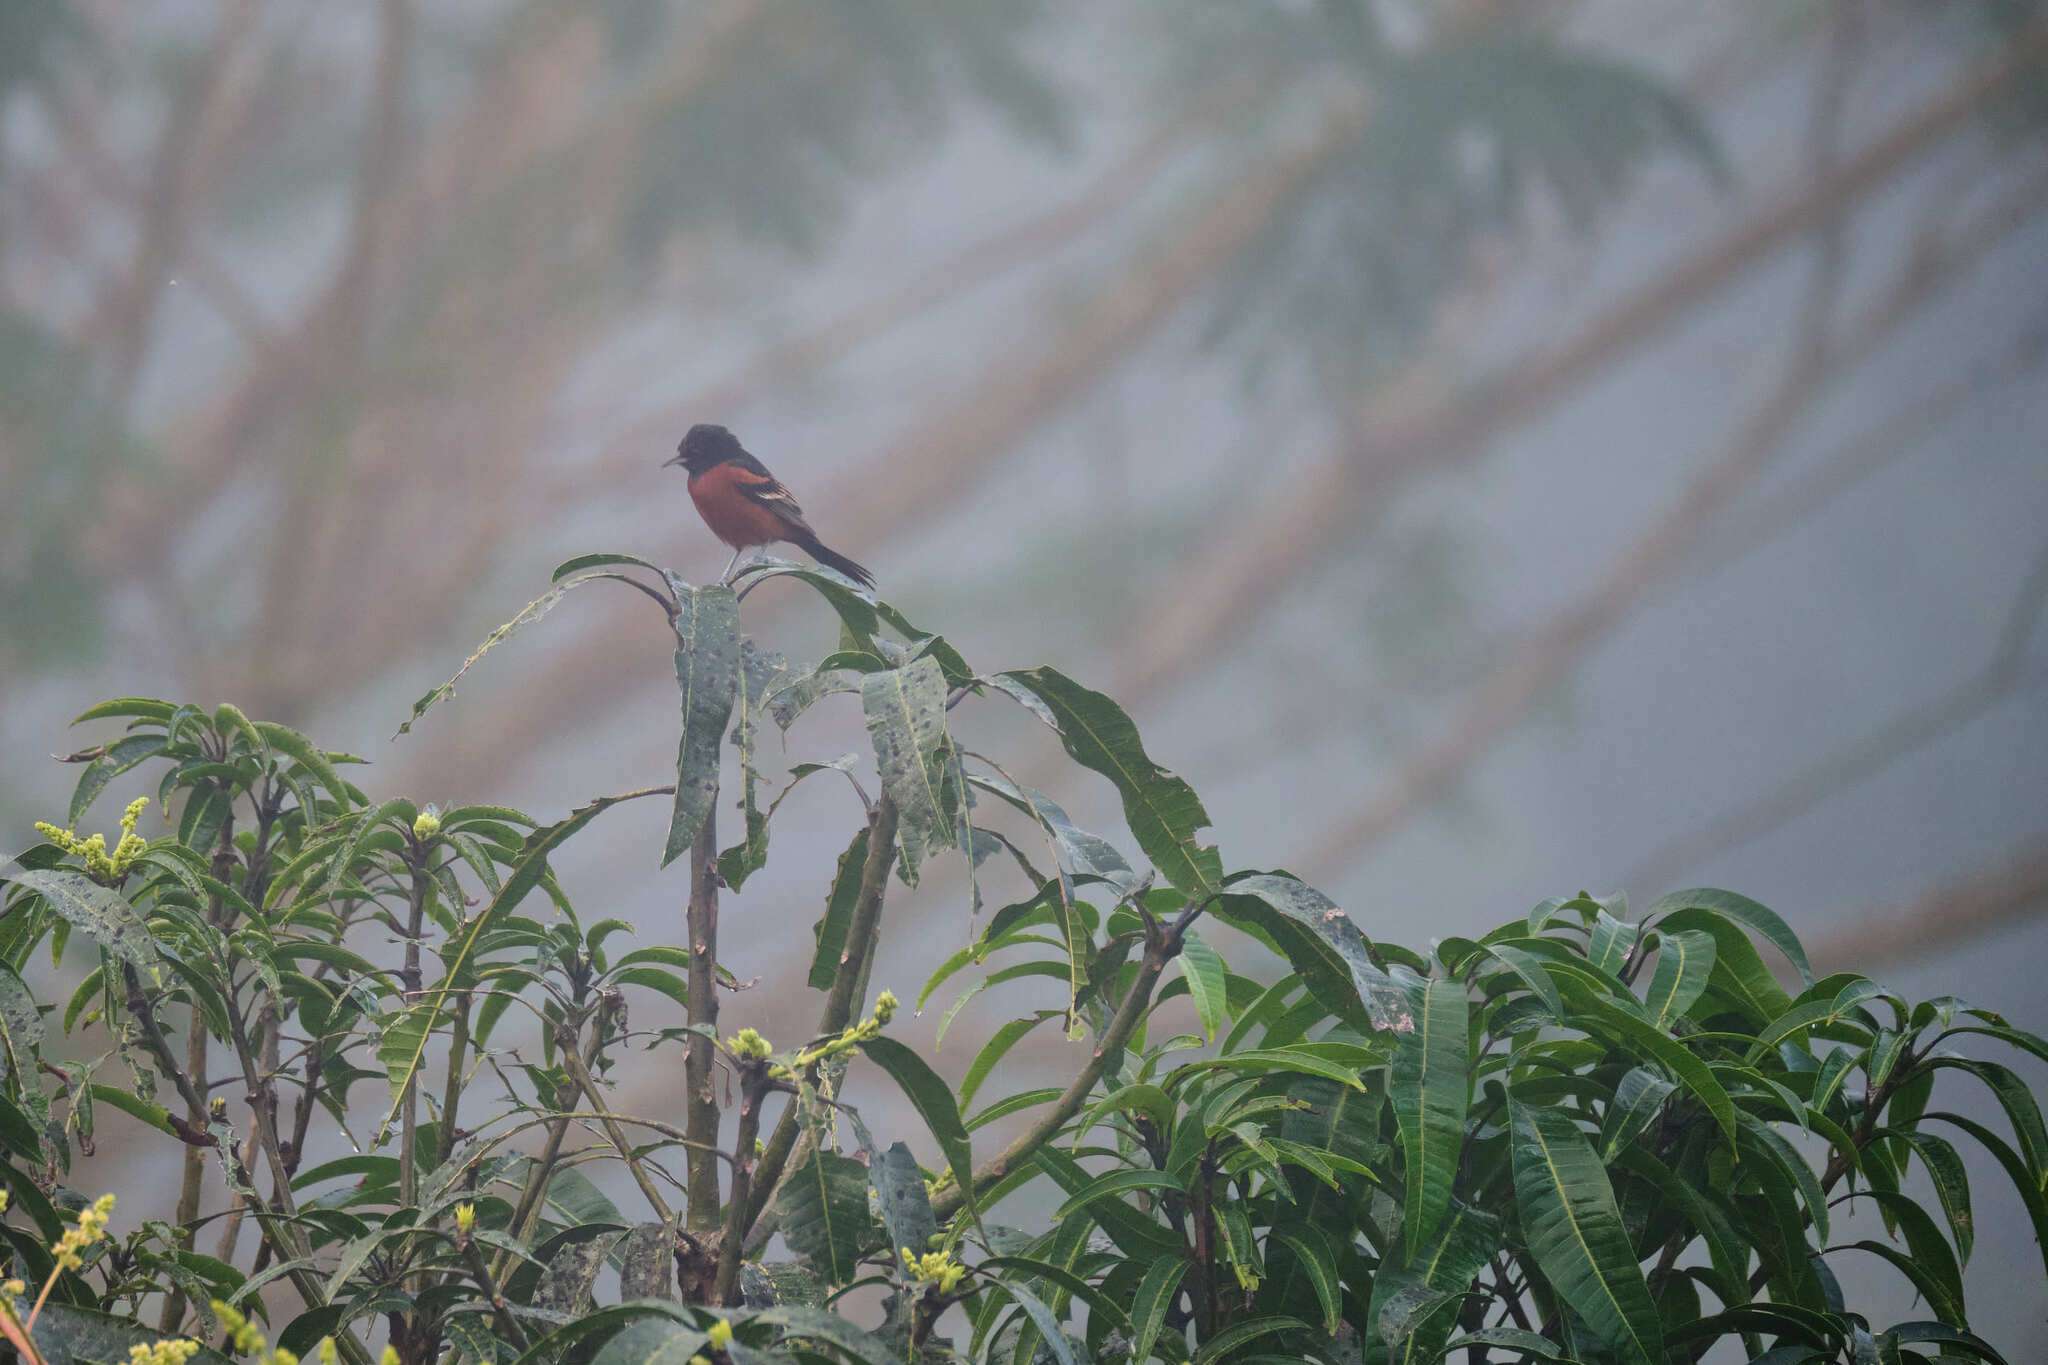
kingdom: Animalia
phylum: Chordata
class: Aves
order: Passeriformes
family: Icteridae
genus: Icterus
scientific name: Icterus spurius
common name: Orchard oriole
